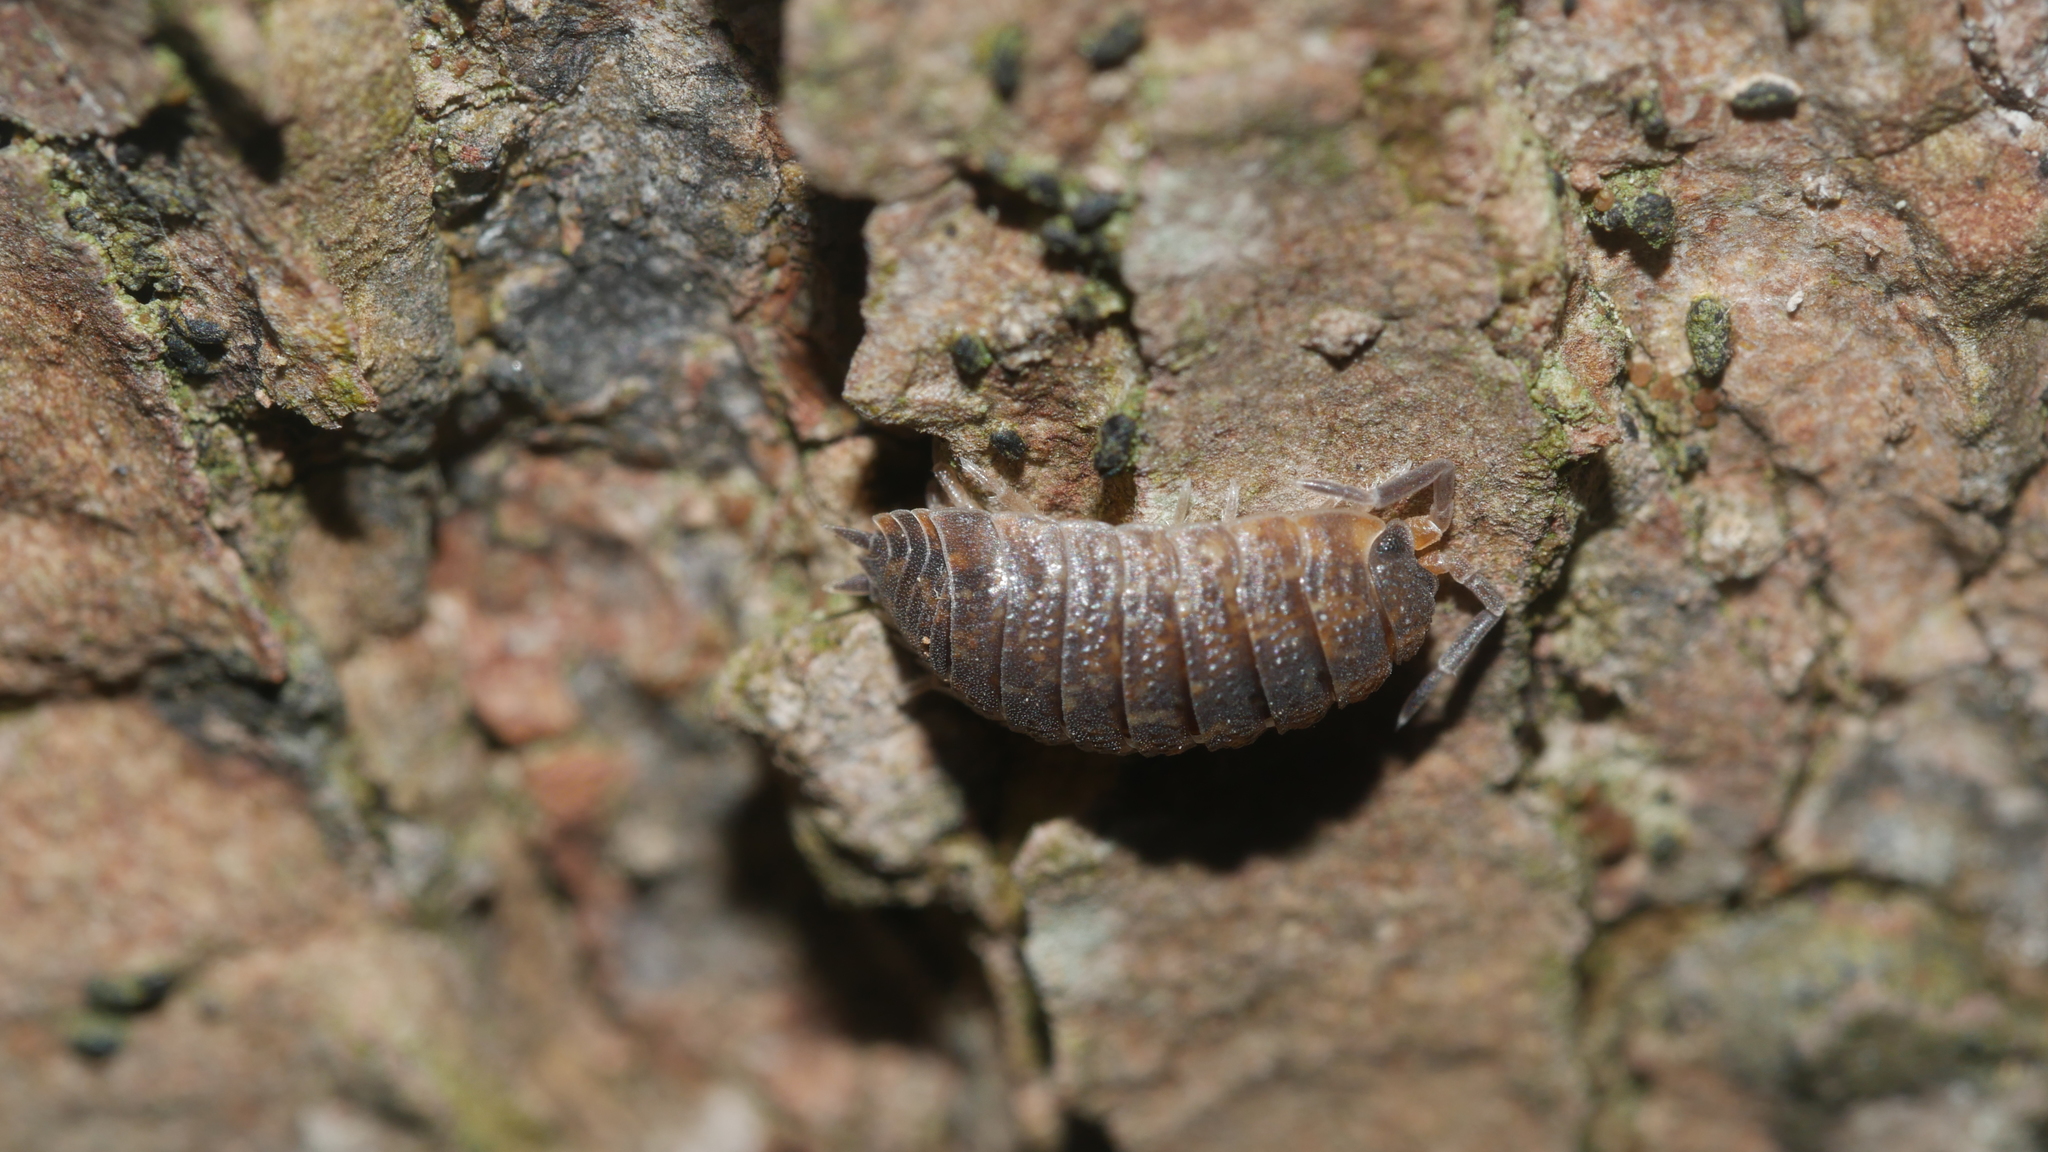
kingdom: Animalia
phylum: Arthropoda
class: Malacostraca
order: Isopoda
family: Porcellionidae
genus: Porcellio
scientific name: Porcellio scaber
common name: Common rough woodlouse
